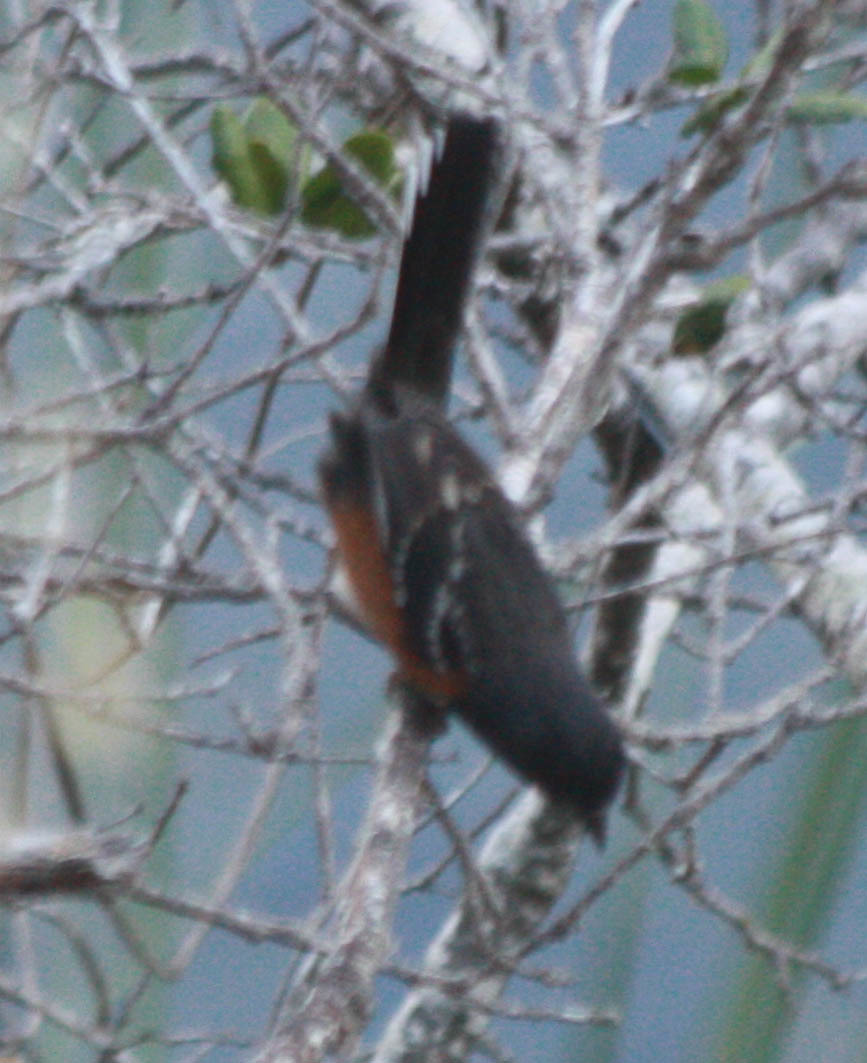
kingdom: Animalia
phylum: Chordata
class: Aves
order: Passeriformes
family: Passerellidae
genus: Pipilo
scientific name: Pipilo maculatus
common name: Spotted towhee
